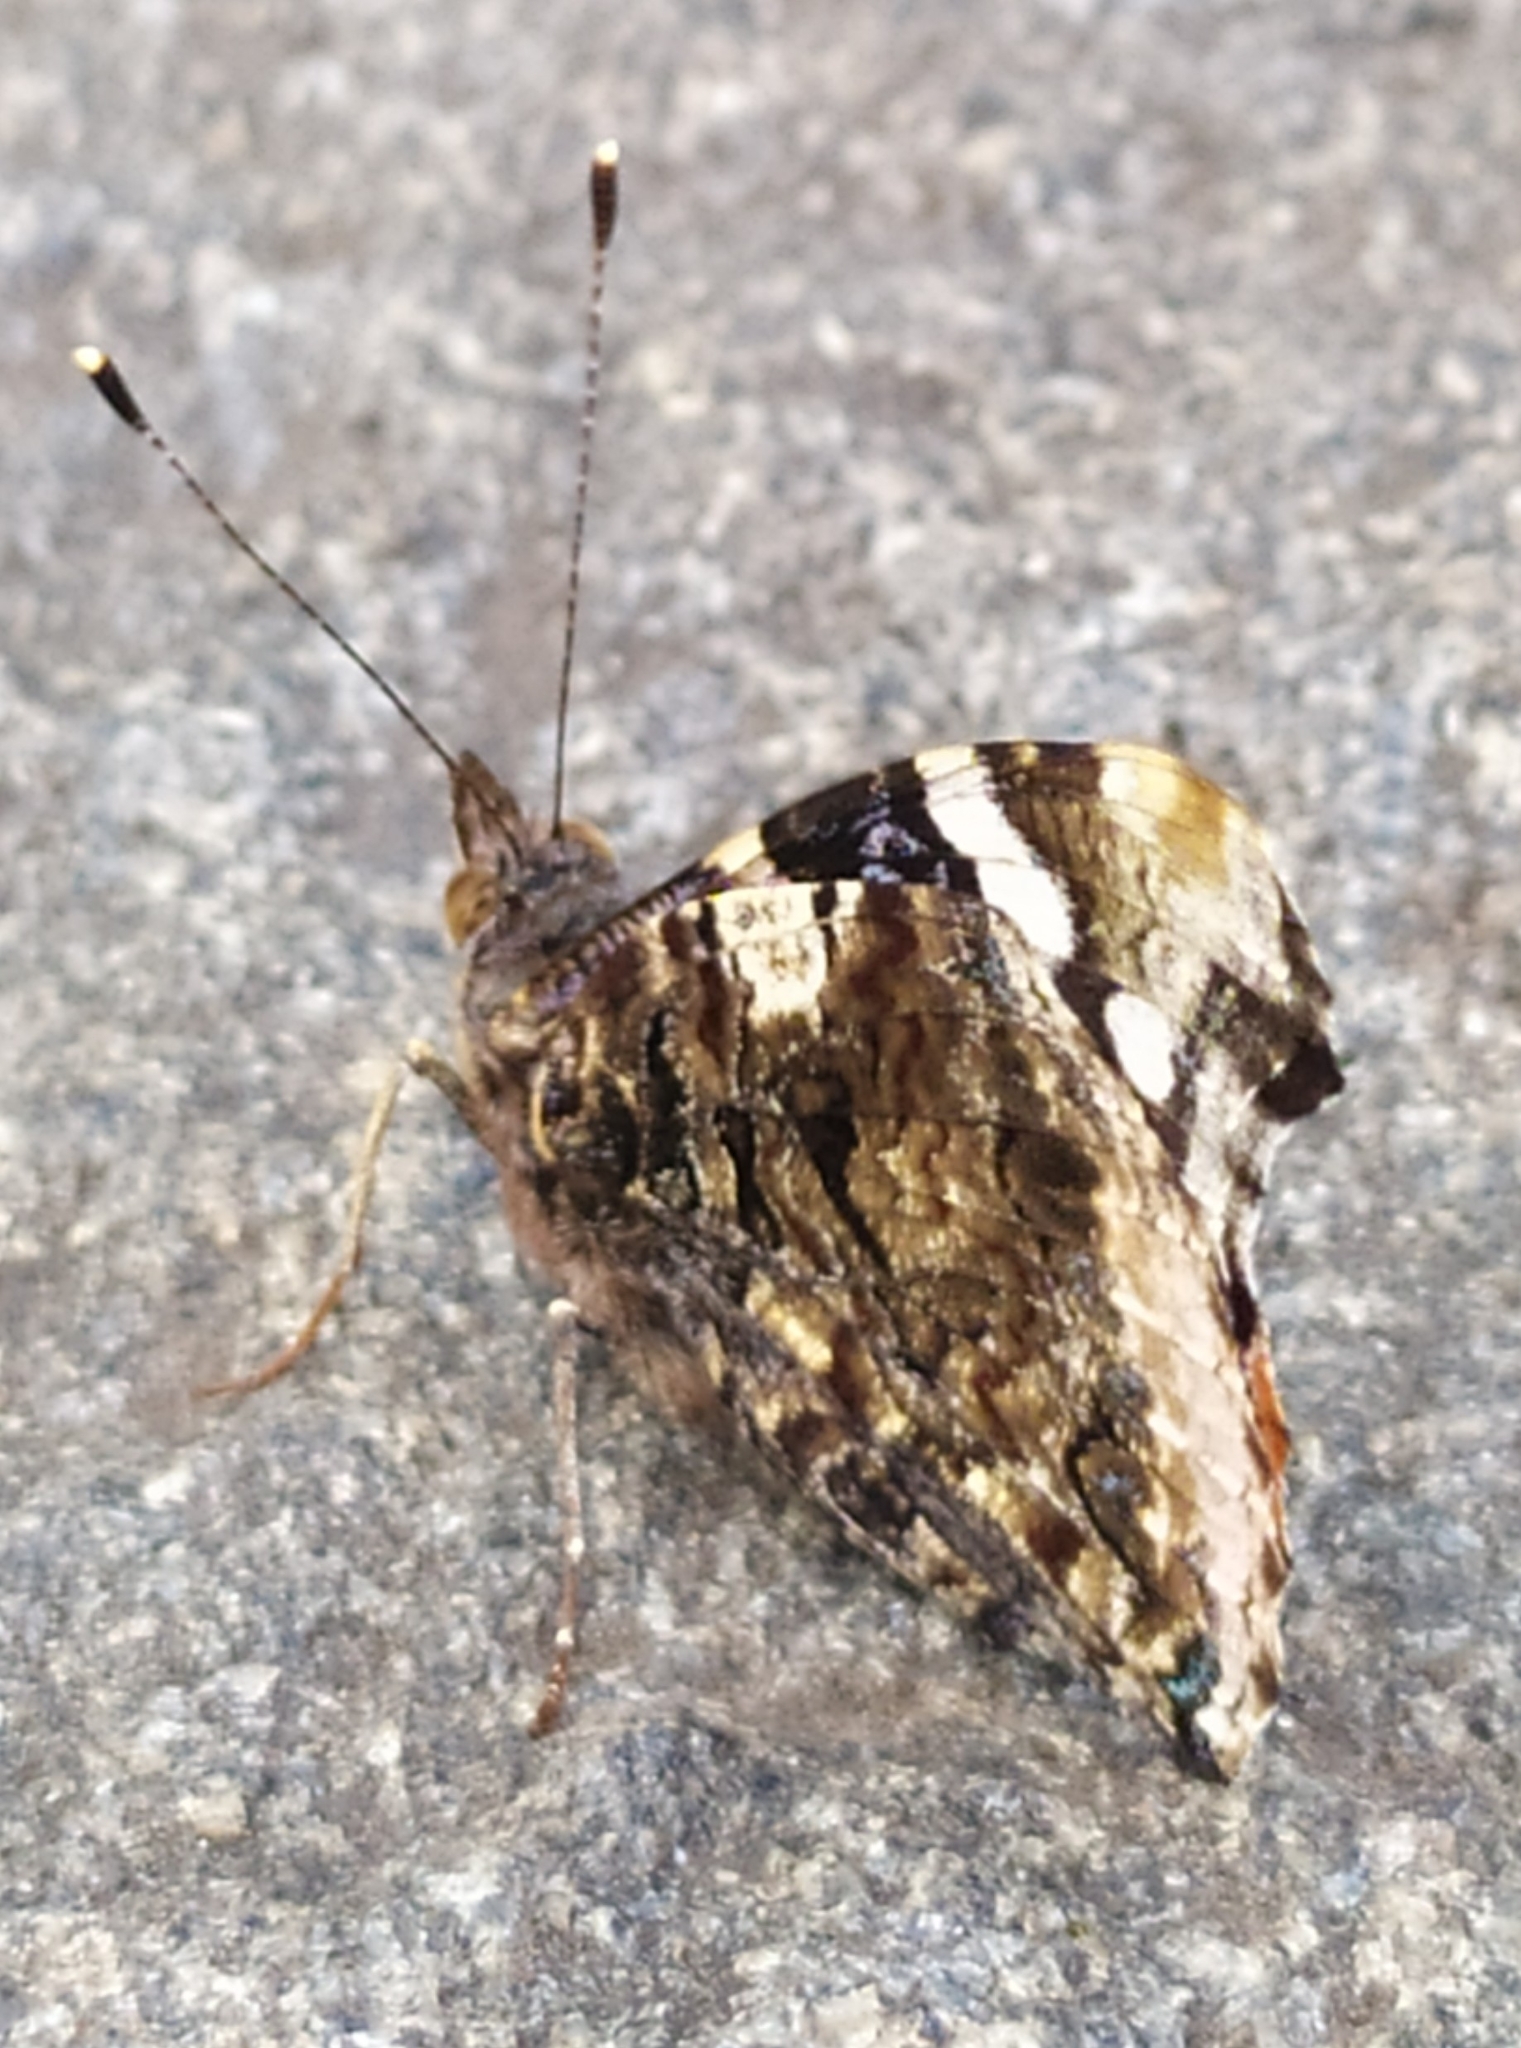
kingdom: Animalia
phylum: Arthropoda
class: Insecta
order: Lepidoptera
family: Nymphalidae
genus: Vanessa
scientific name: Vanessa atalanta
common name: Red admiral
